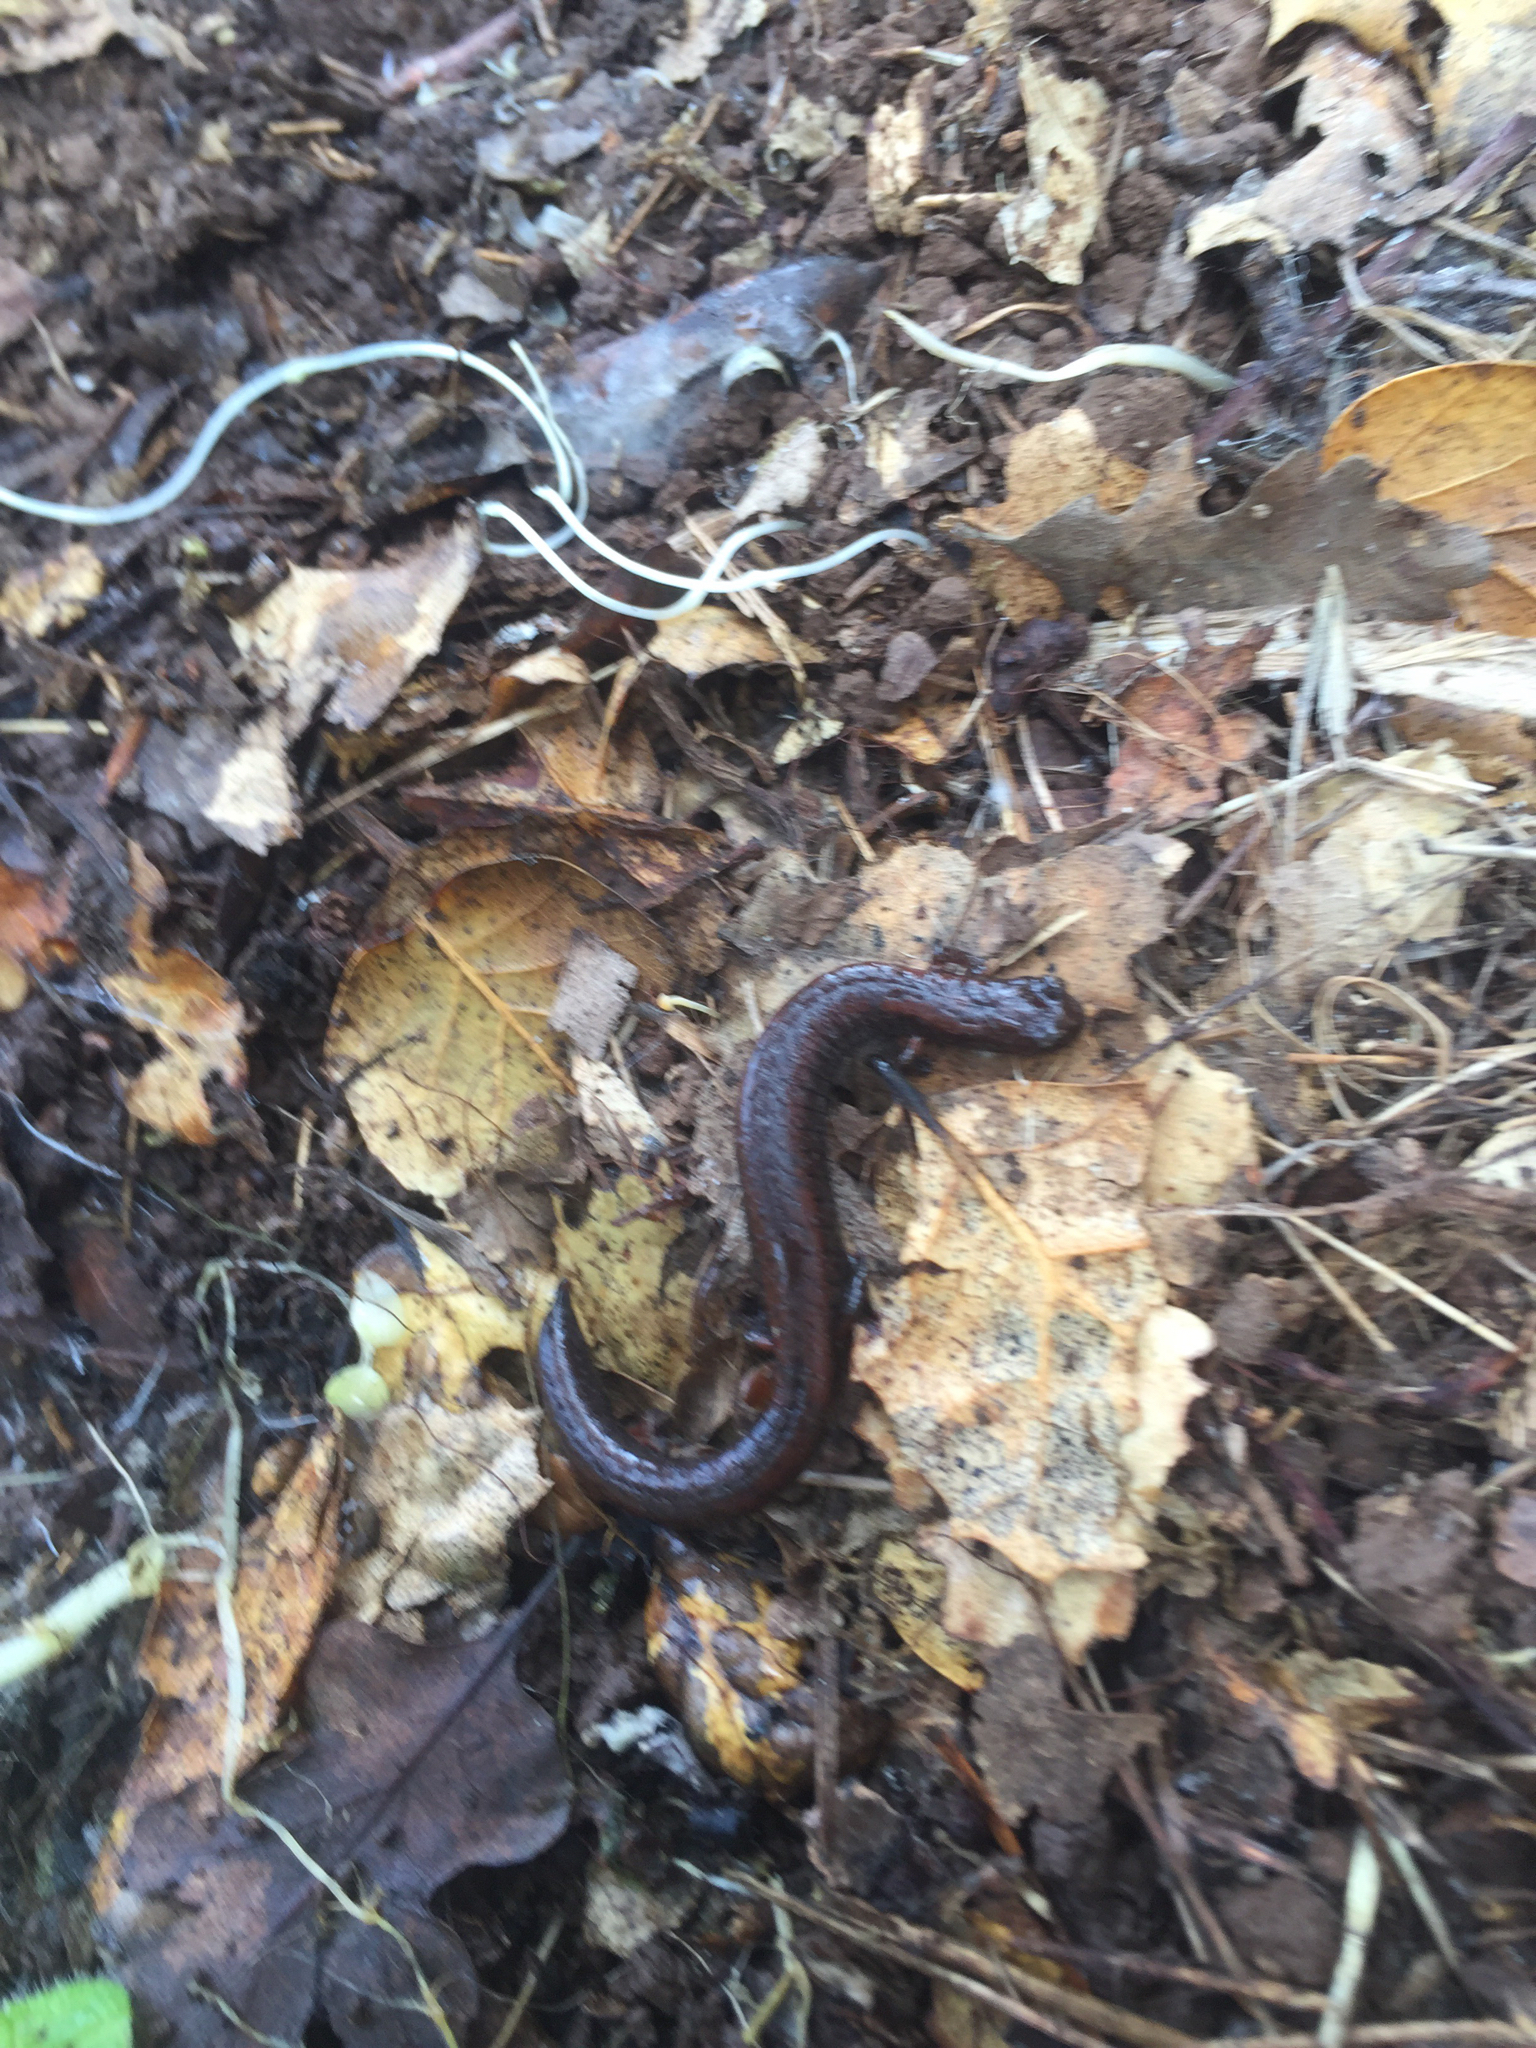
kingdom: Animalia
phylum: Chordata
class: Amphibia
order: Caudata
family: Plethodontidae
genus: Batrachoseps
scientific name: Batrachoseps attenuatus
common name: California slender salamander
